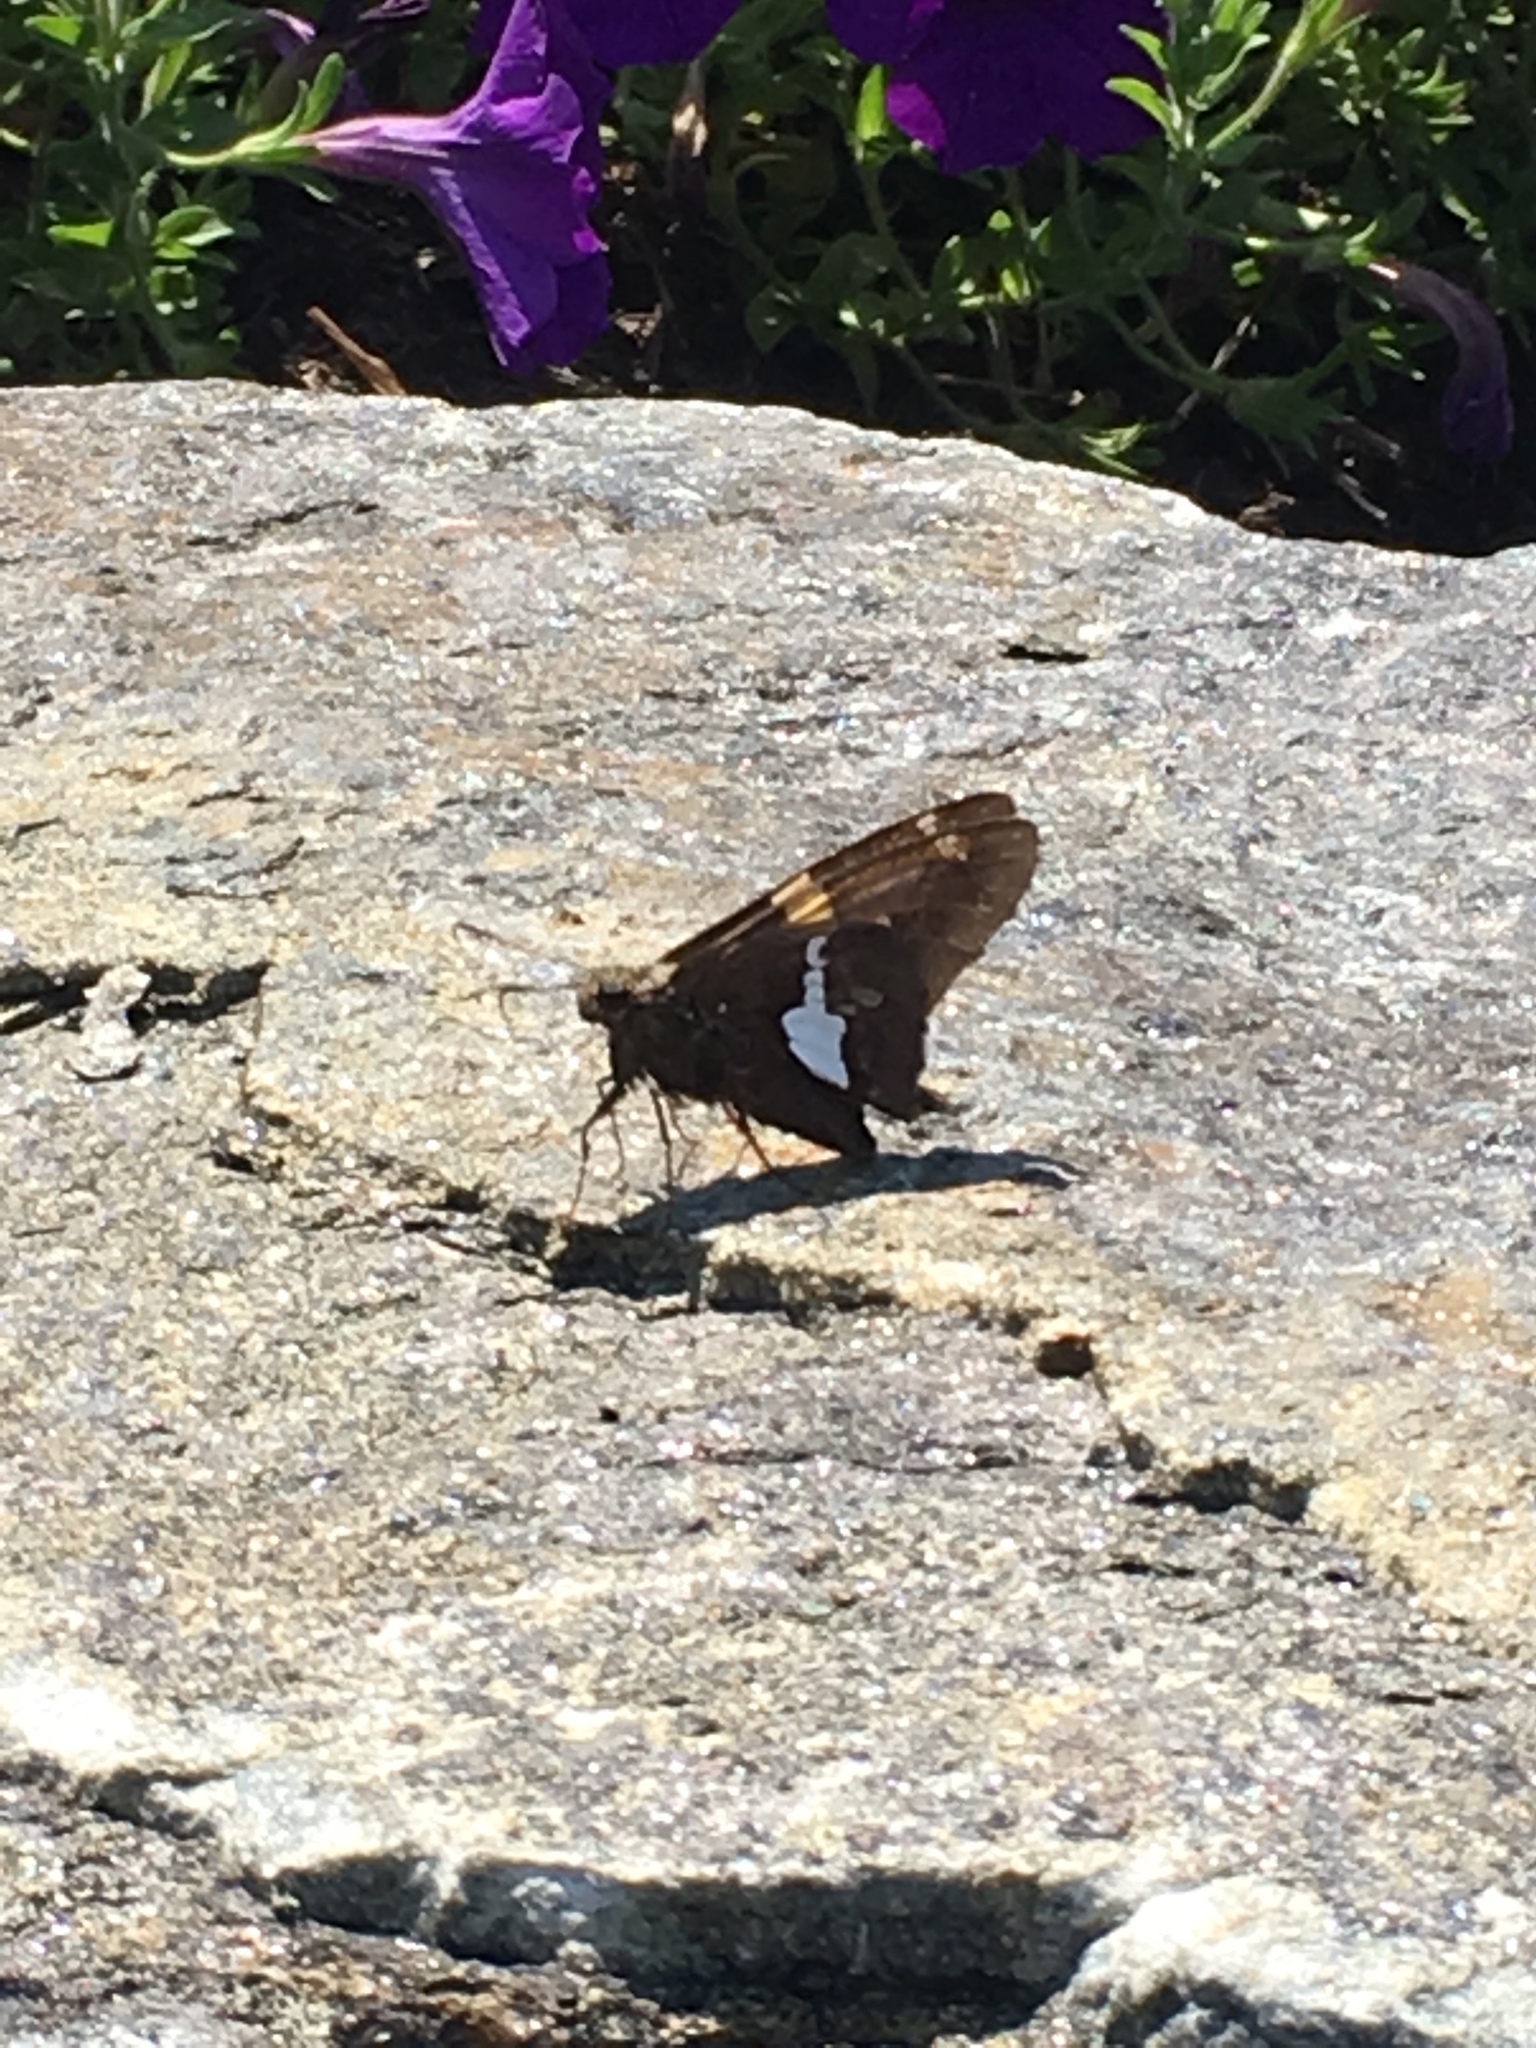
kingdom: Animalia
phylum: Arthropoda
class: Insecta
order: Lepidoptera
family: Hesperiidae
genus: Epargyreus
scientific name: Epargyreus clarus
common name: Silver-spotted skipper
